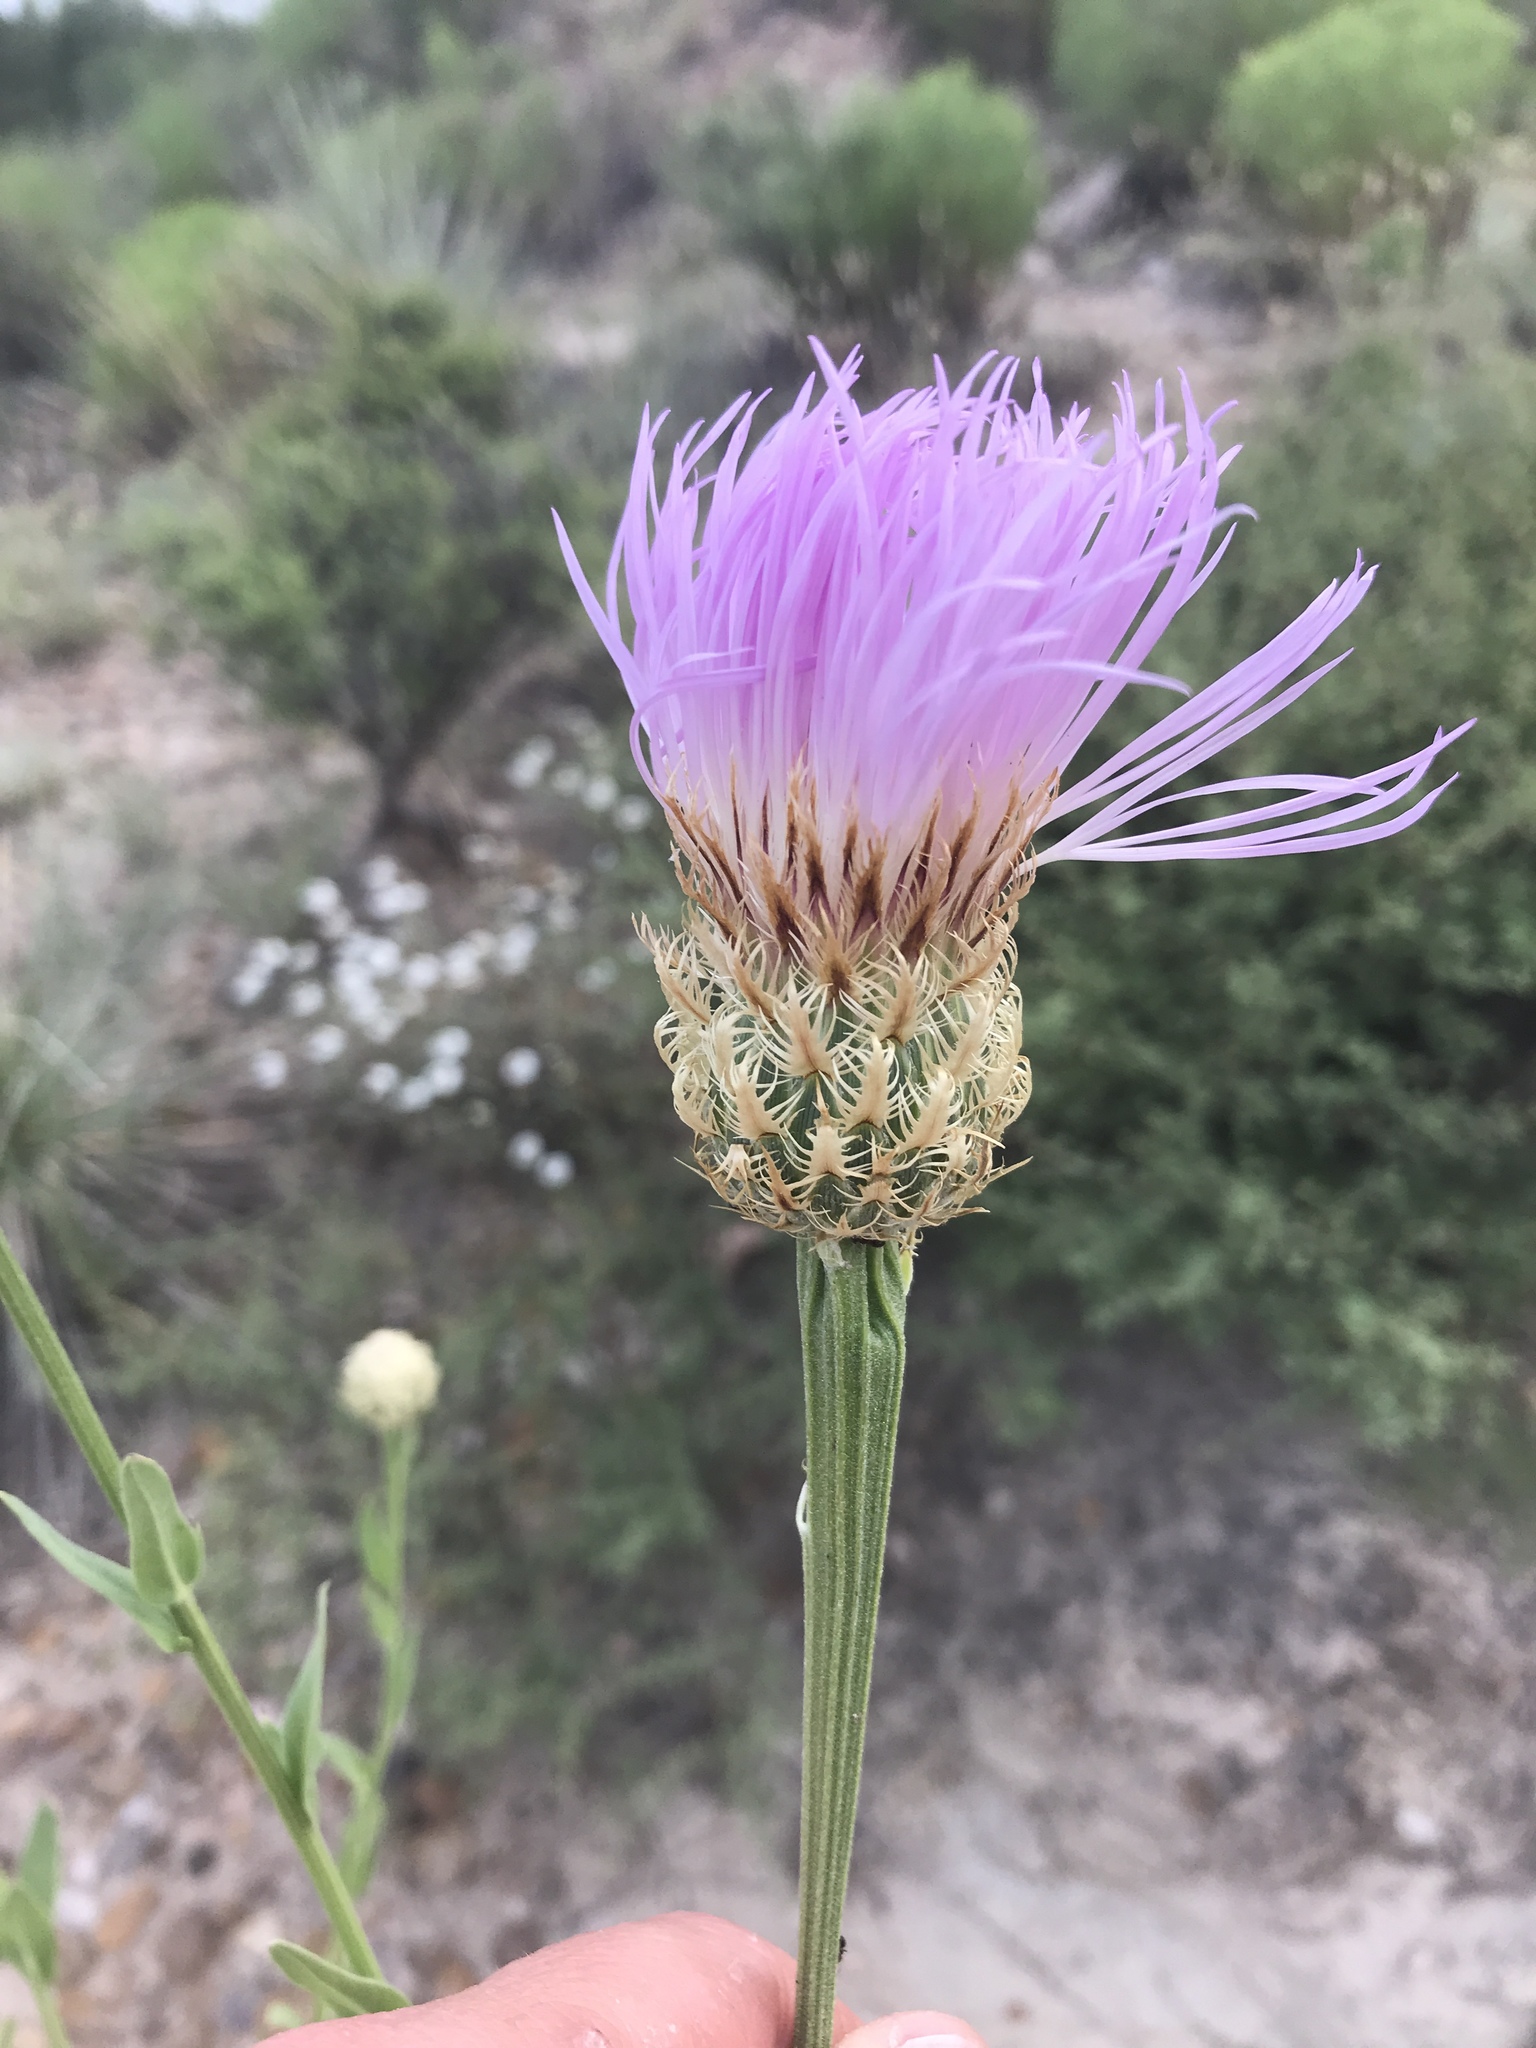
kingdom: Plantae
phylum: Tracheophyta
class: Magnoliopsida
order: Asterales
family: Asteraceae
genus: Plectocephalus
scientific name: Plectocephalus americanus
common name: American basket-flower
